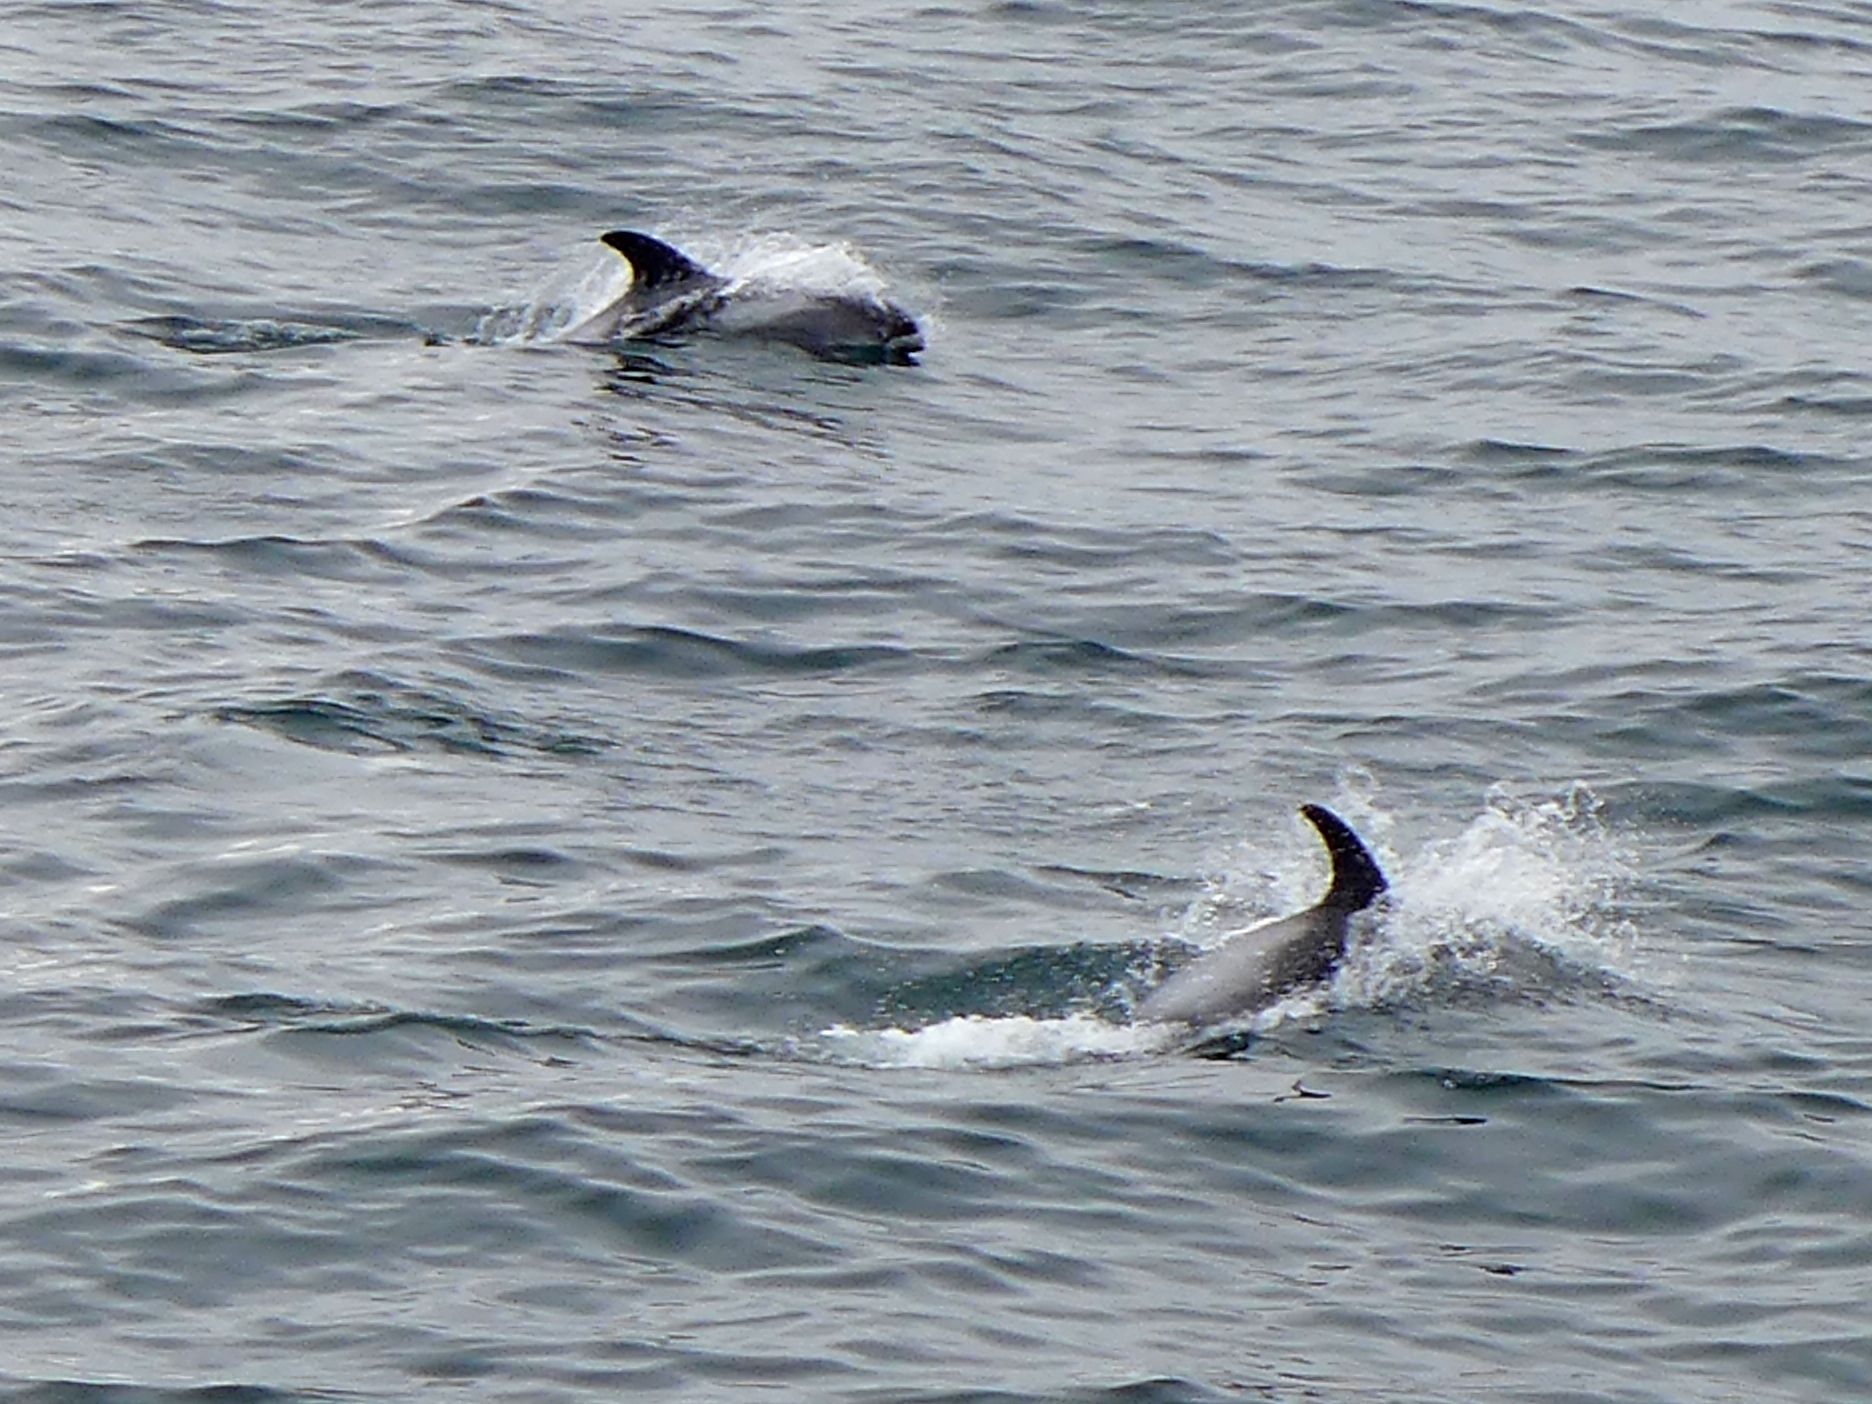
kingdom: Animalia
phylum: Chordata
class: Mammalia
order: Cetacea
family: Delphinidae
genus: Lagenorhynchus
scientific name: Lagenorhynchus albirostris
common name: White-beaked dolphin
